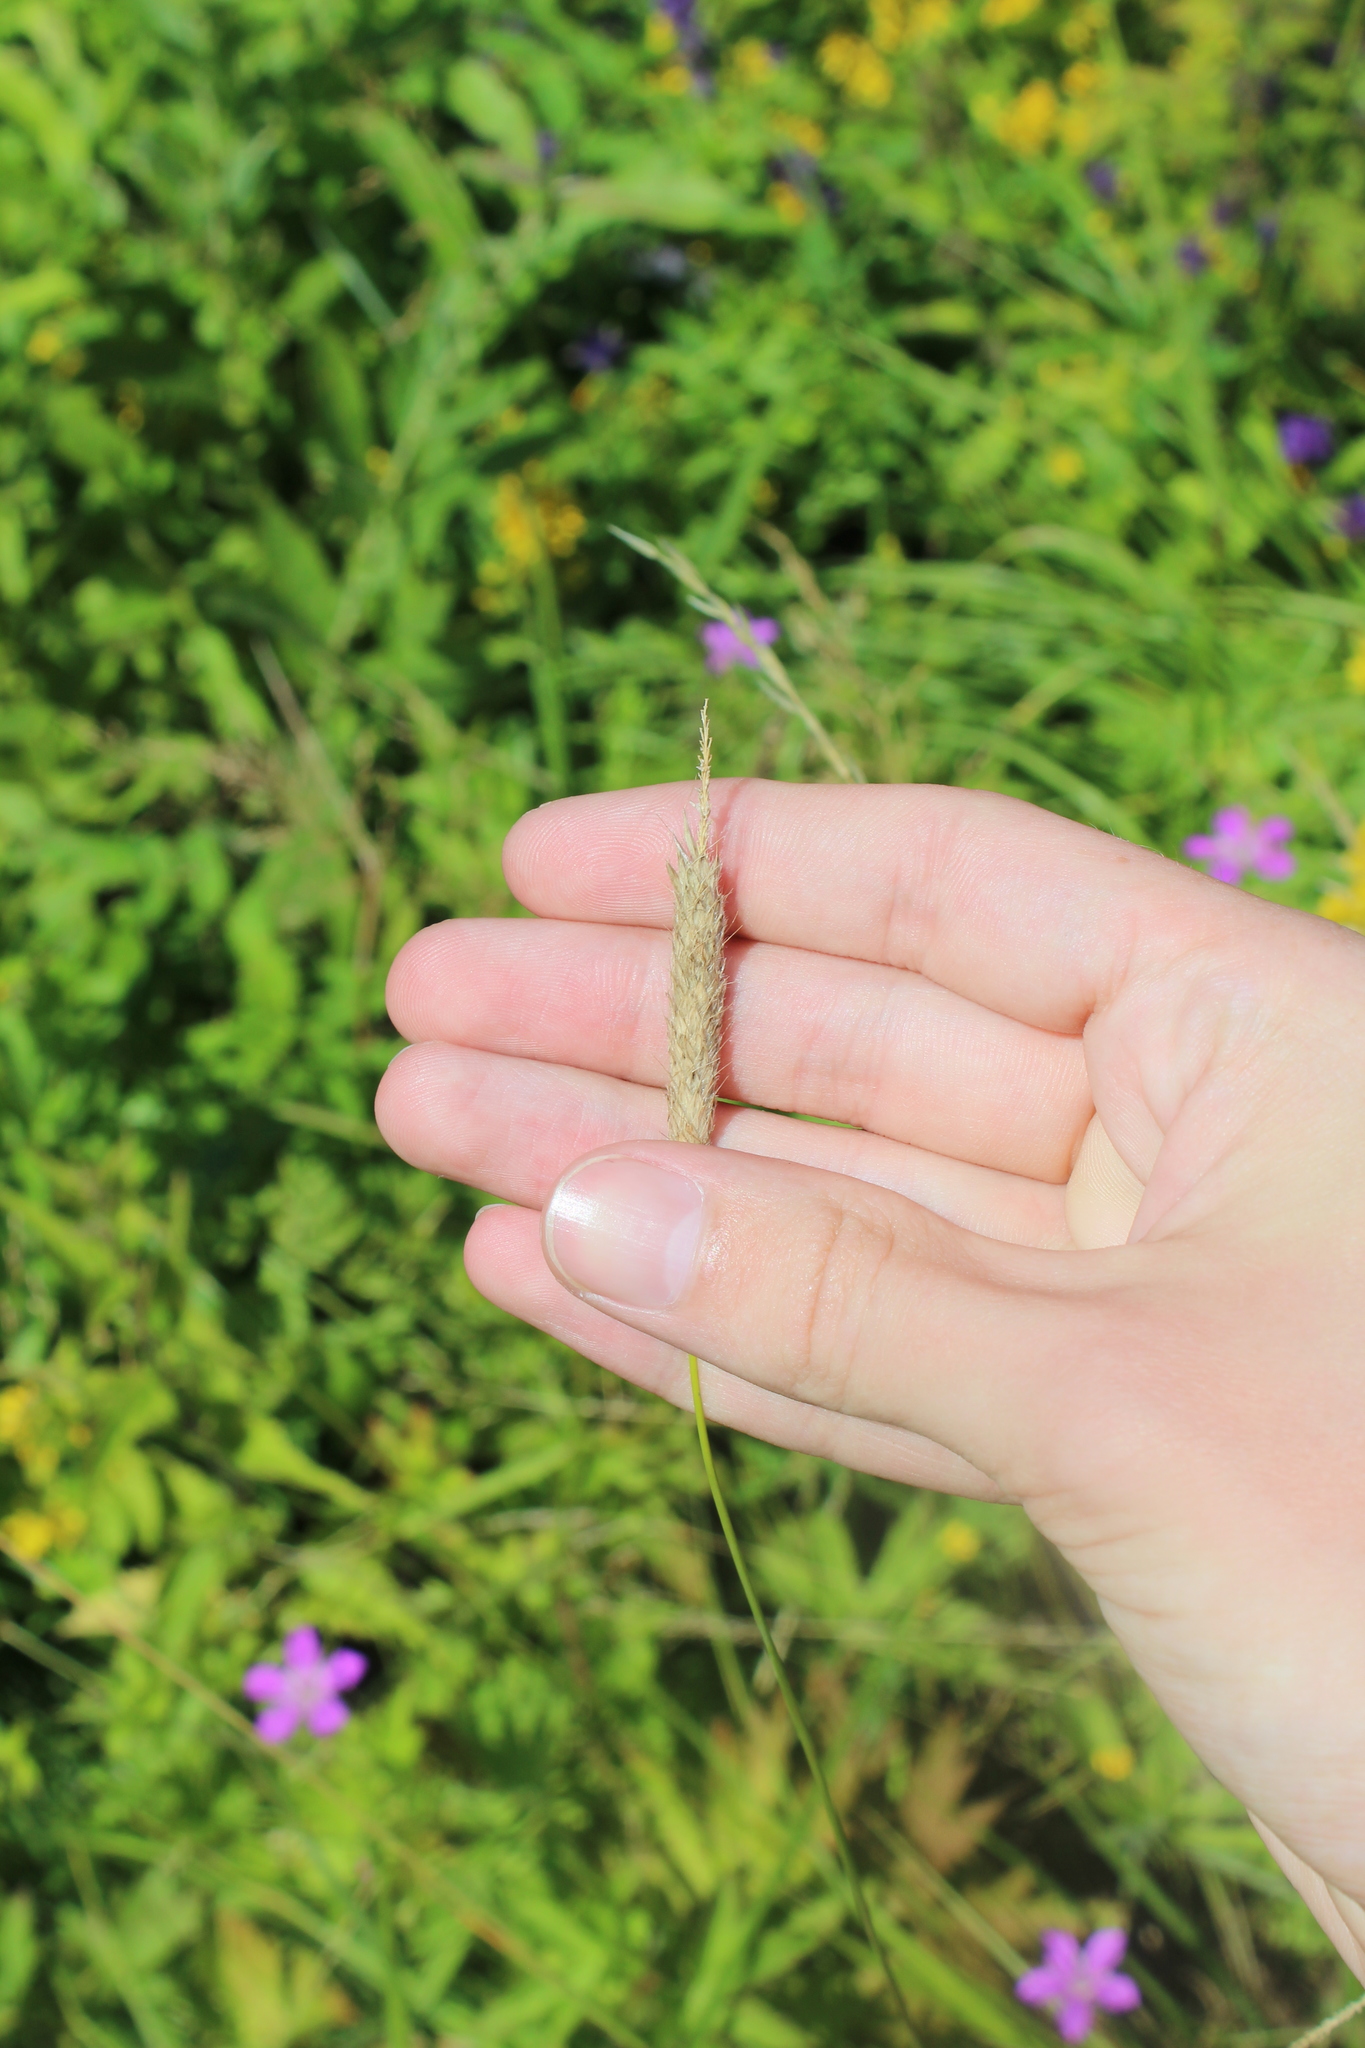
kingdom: Plantae
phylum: Tracheophyta
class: Liliopsida
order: Poales
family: Poaceae
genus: Alopecurus
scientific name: Alopecurus pratensis
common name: Meadow foxtail
